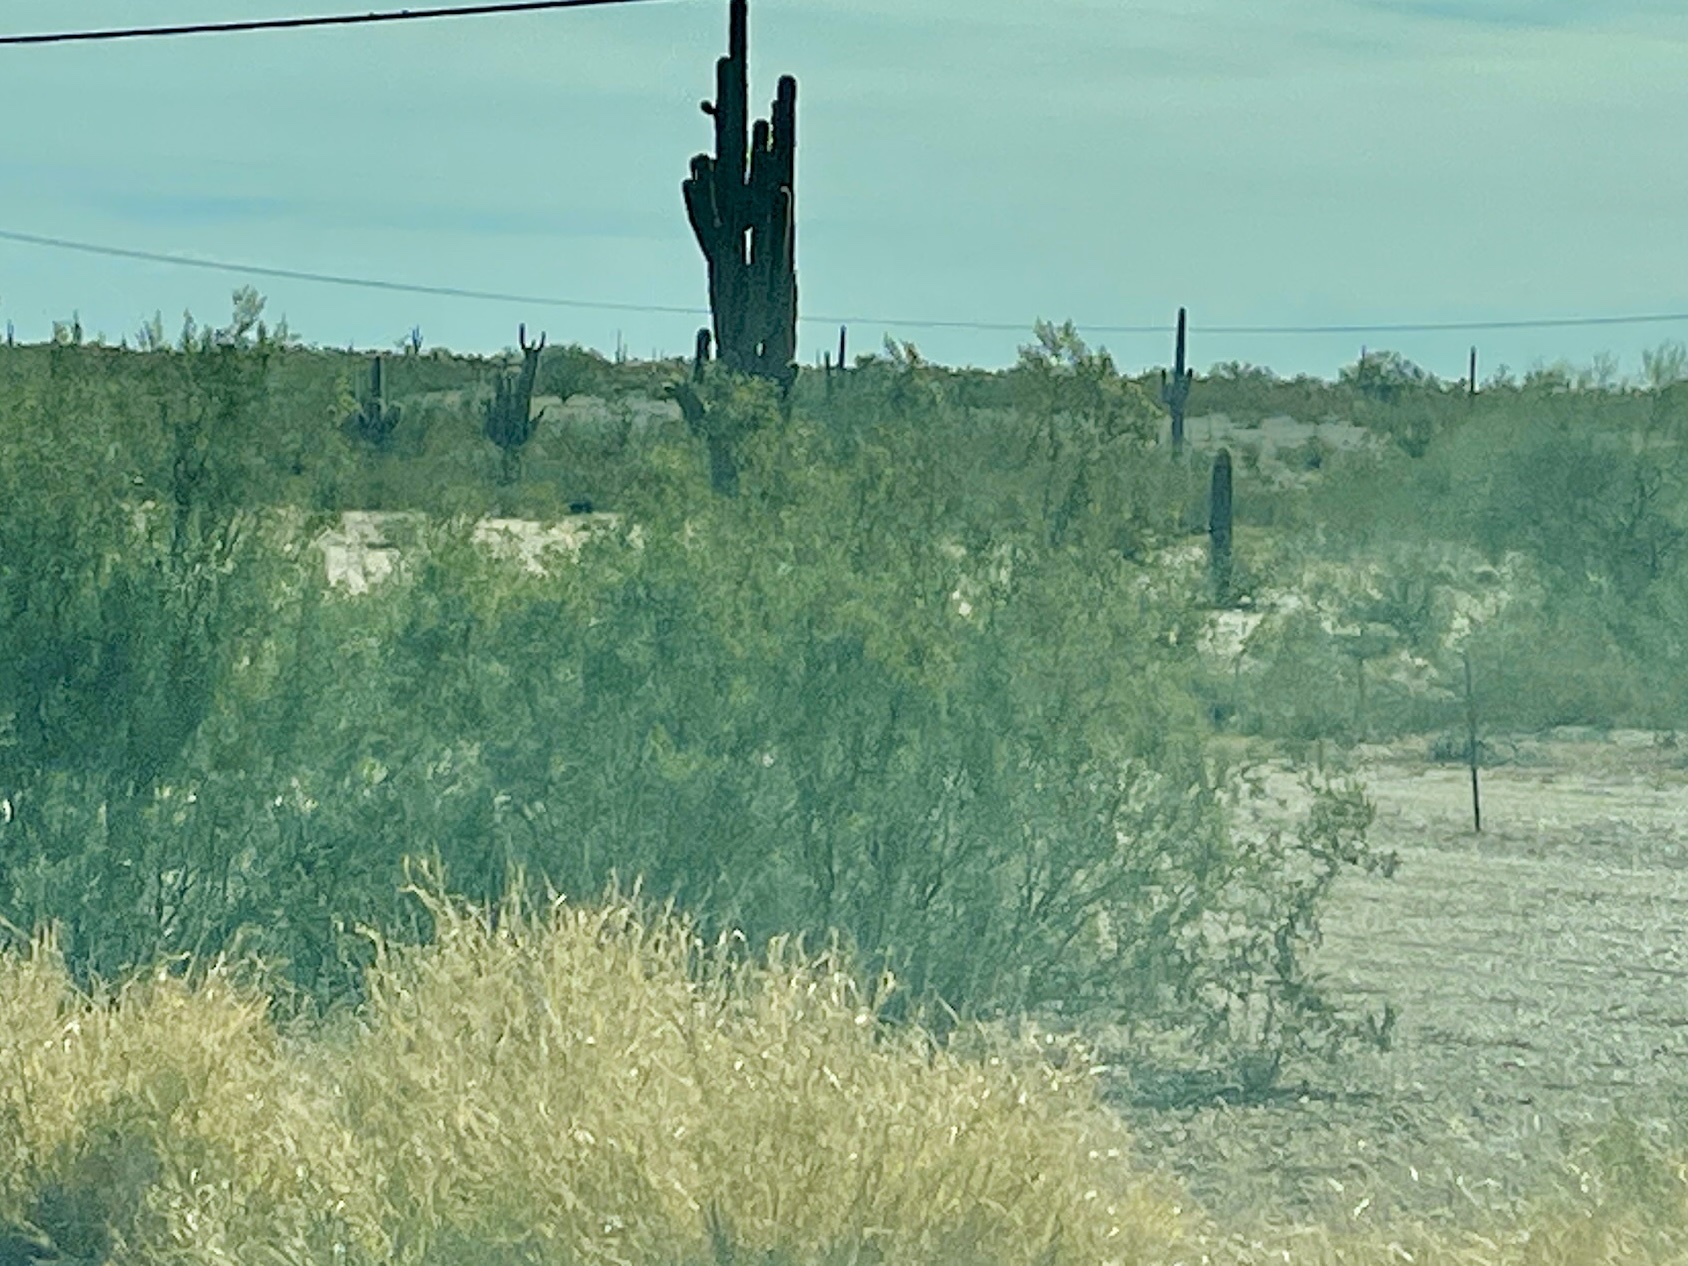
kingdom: Plantae
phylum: Tracheophyta
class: Magnoliopsida
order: Zygophyllales
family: Zygophyllaceae
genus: Larrea
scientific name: Larrea tridentata
